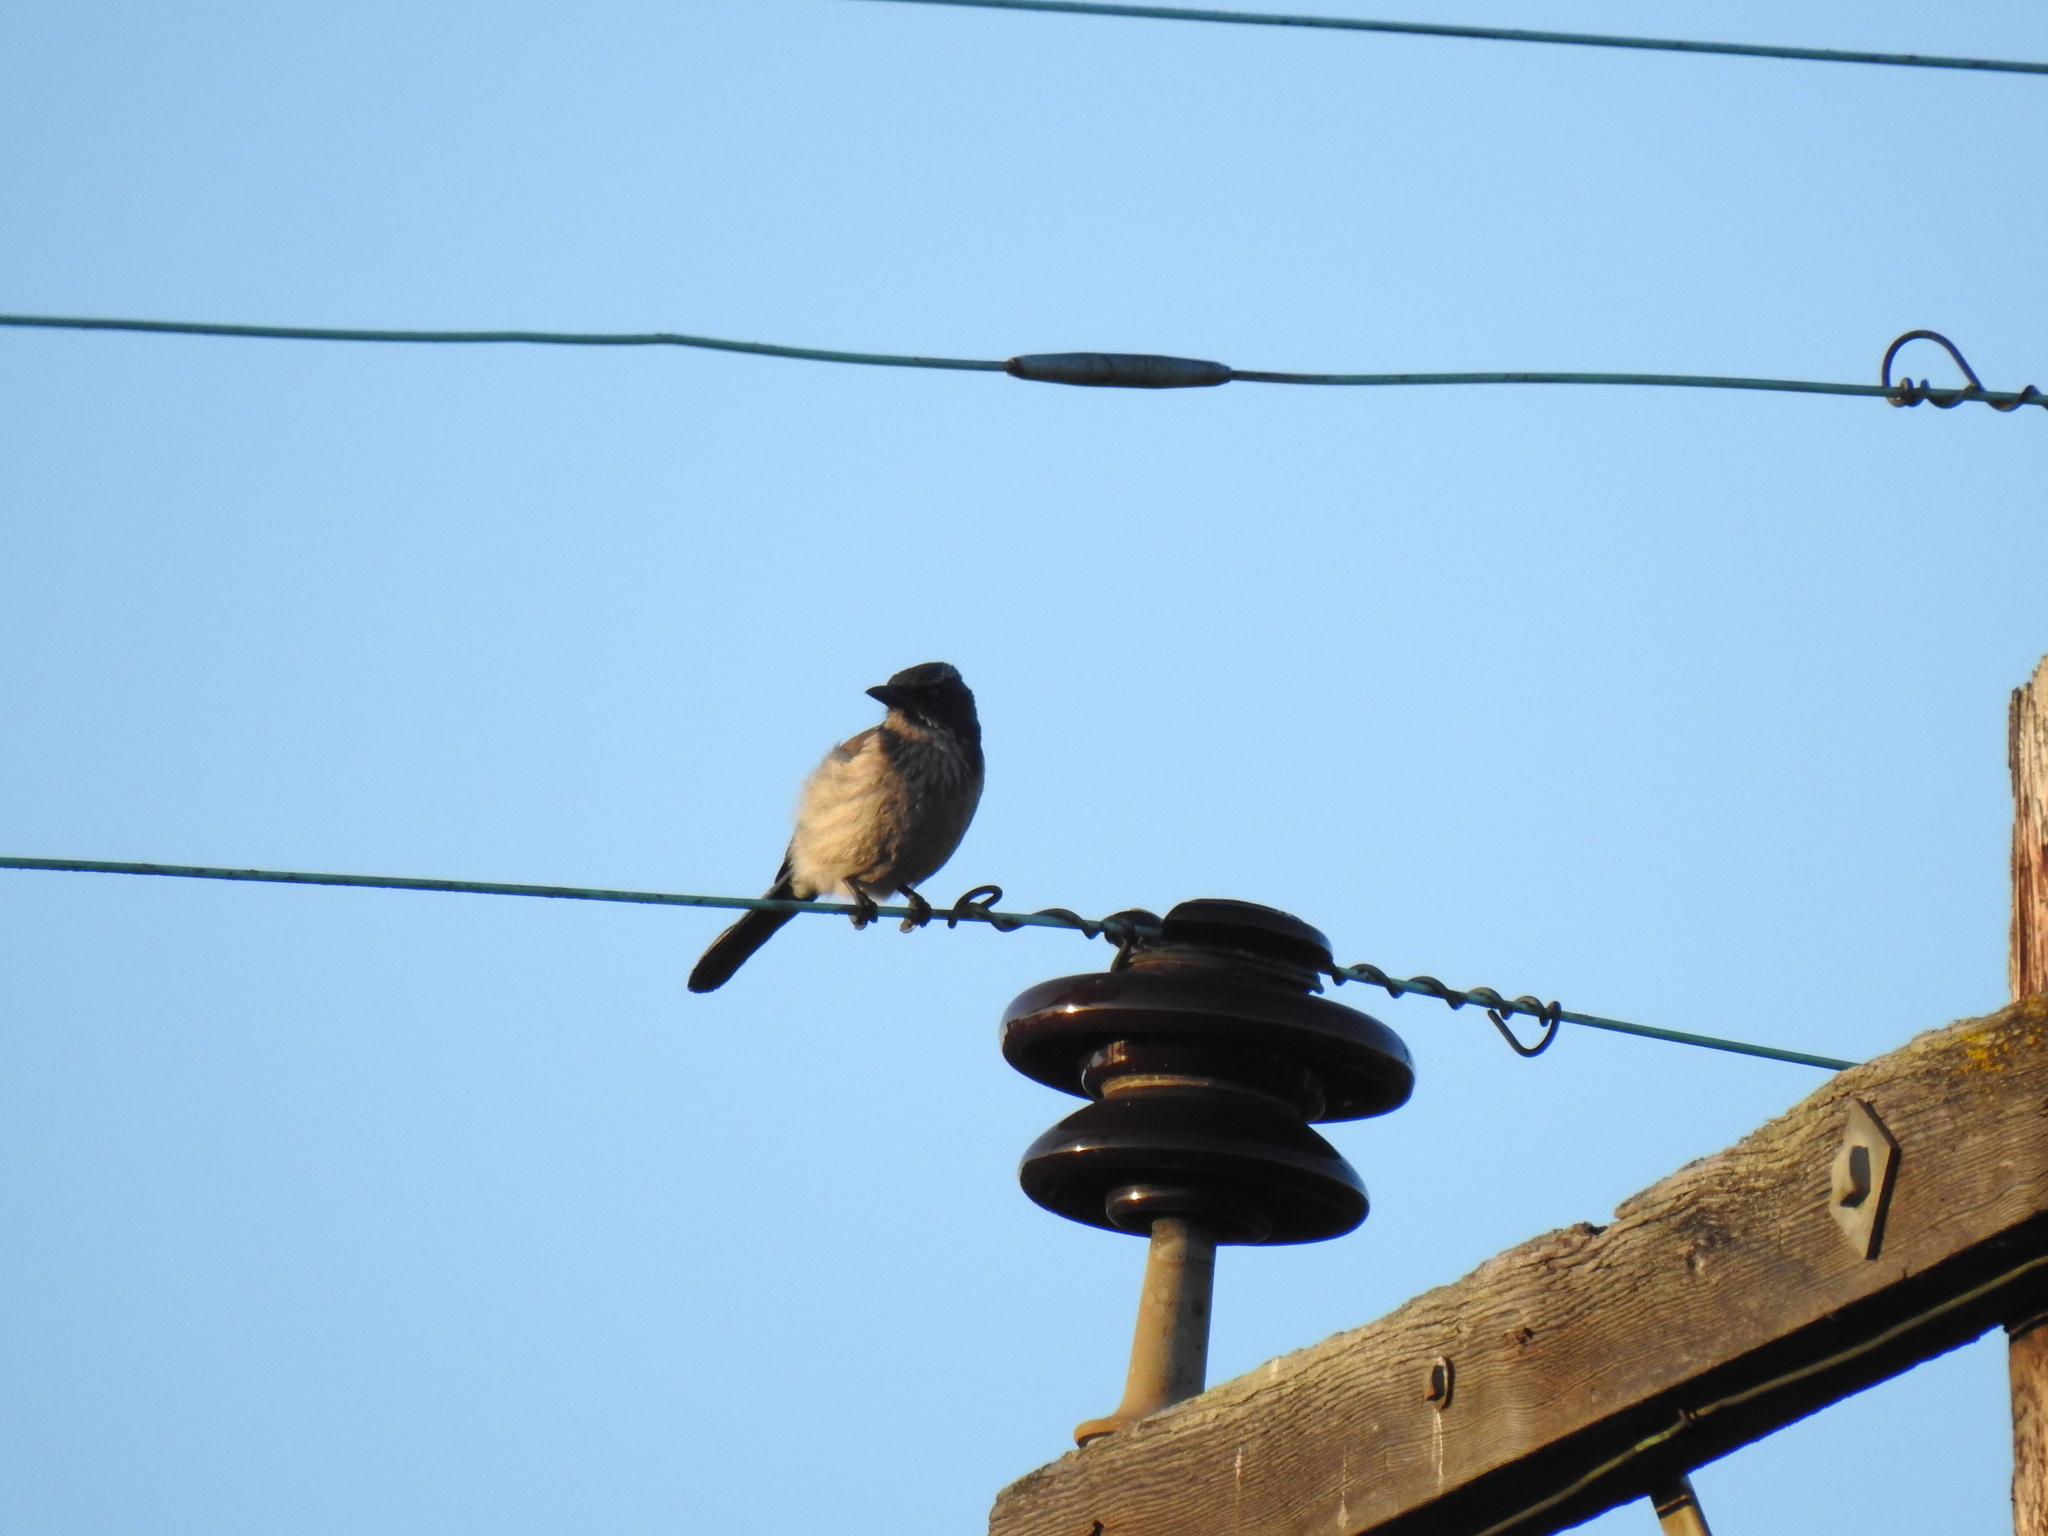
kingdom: Animalia
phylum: Chordata
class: Aves
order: Passeriformes
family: Corvidae
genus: Aphelocoma
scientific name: Aphelocoma californica
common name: California scrub-jay
